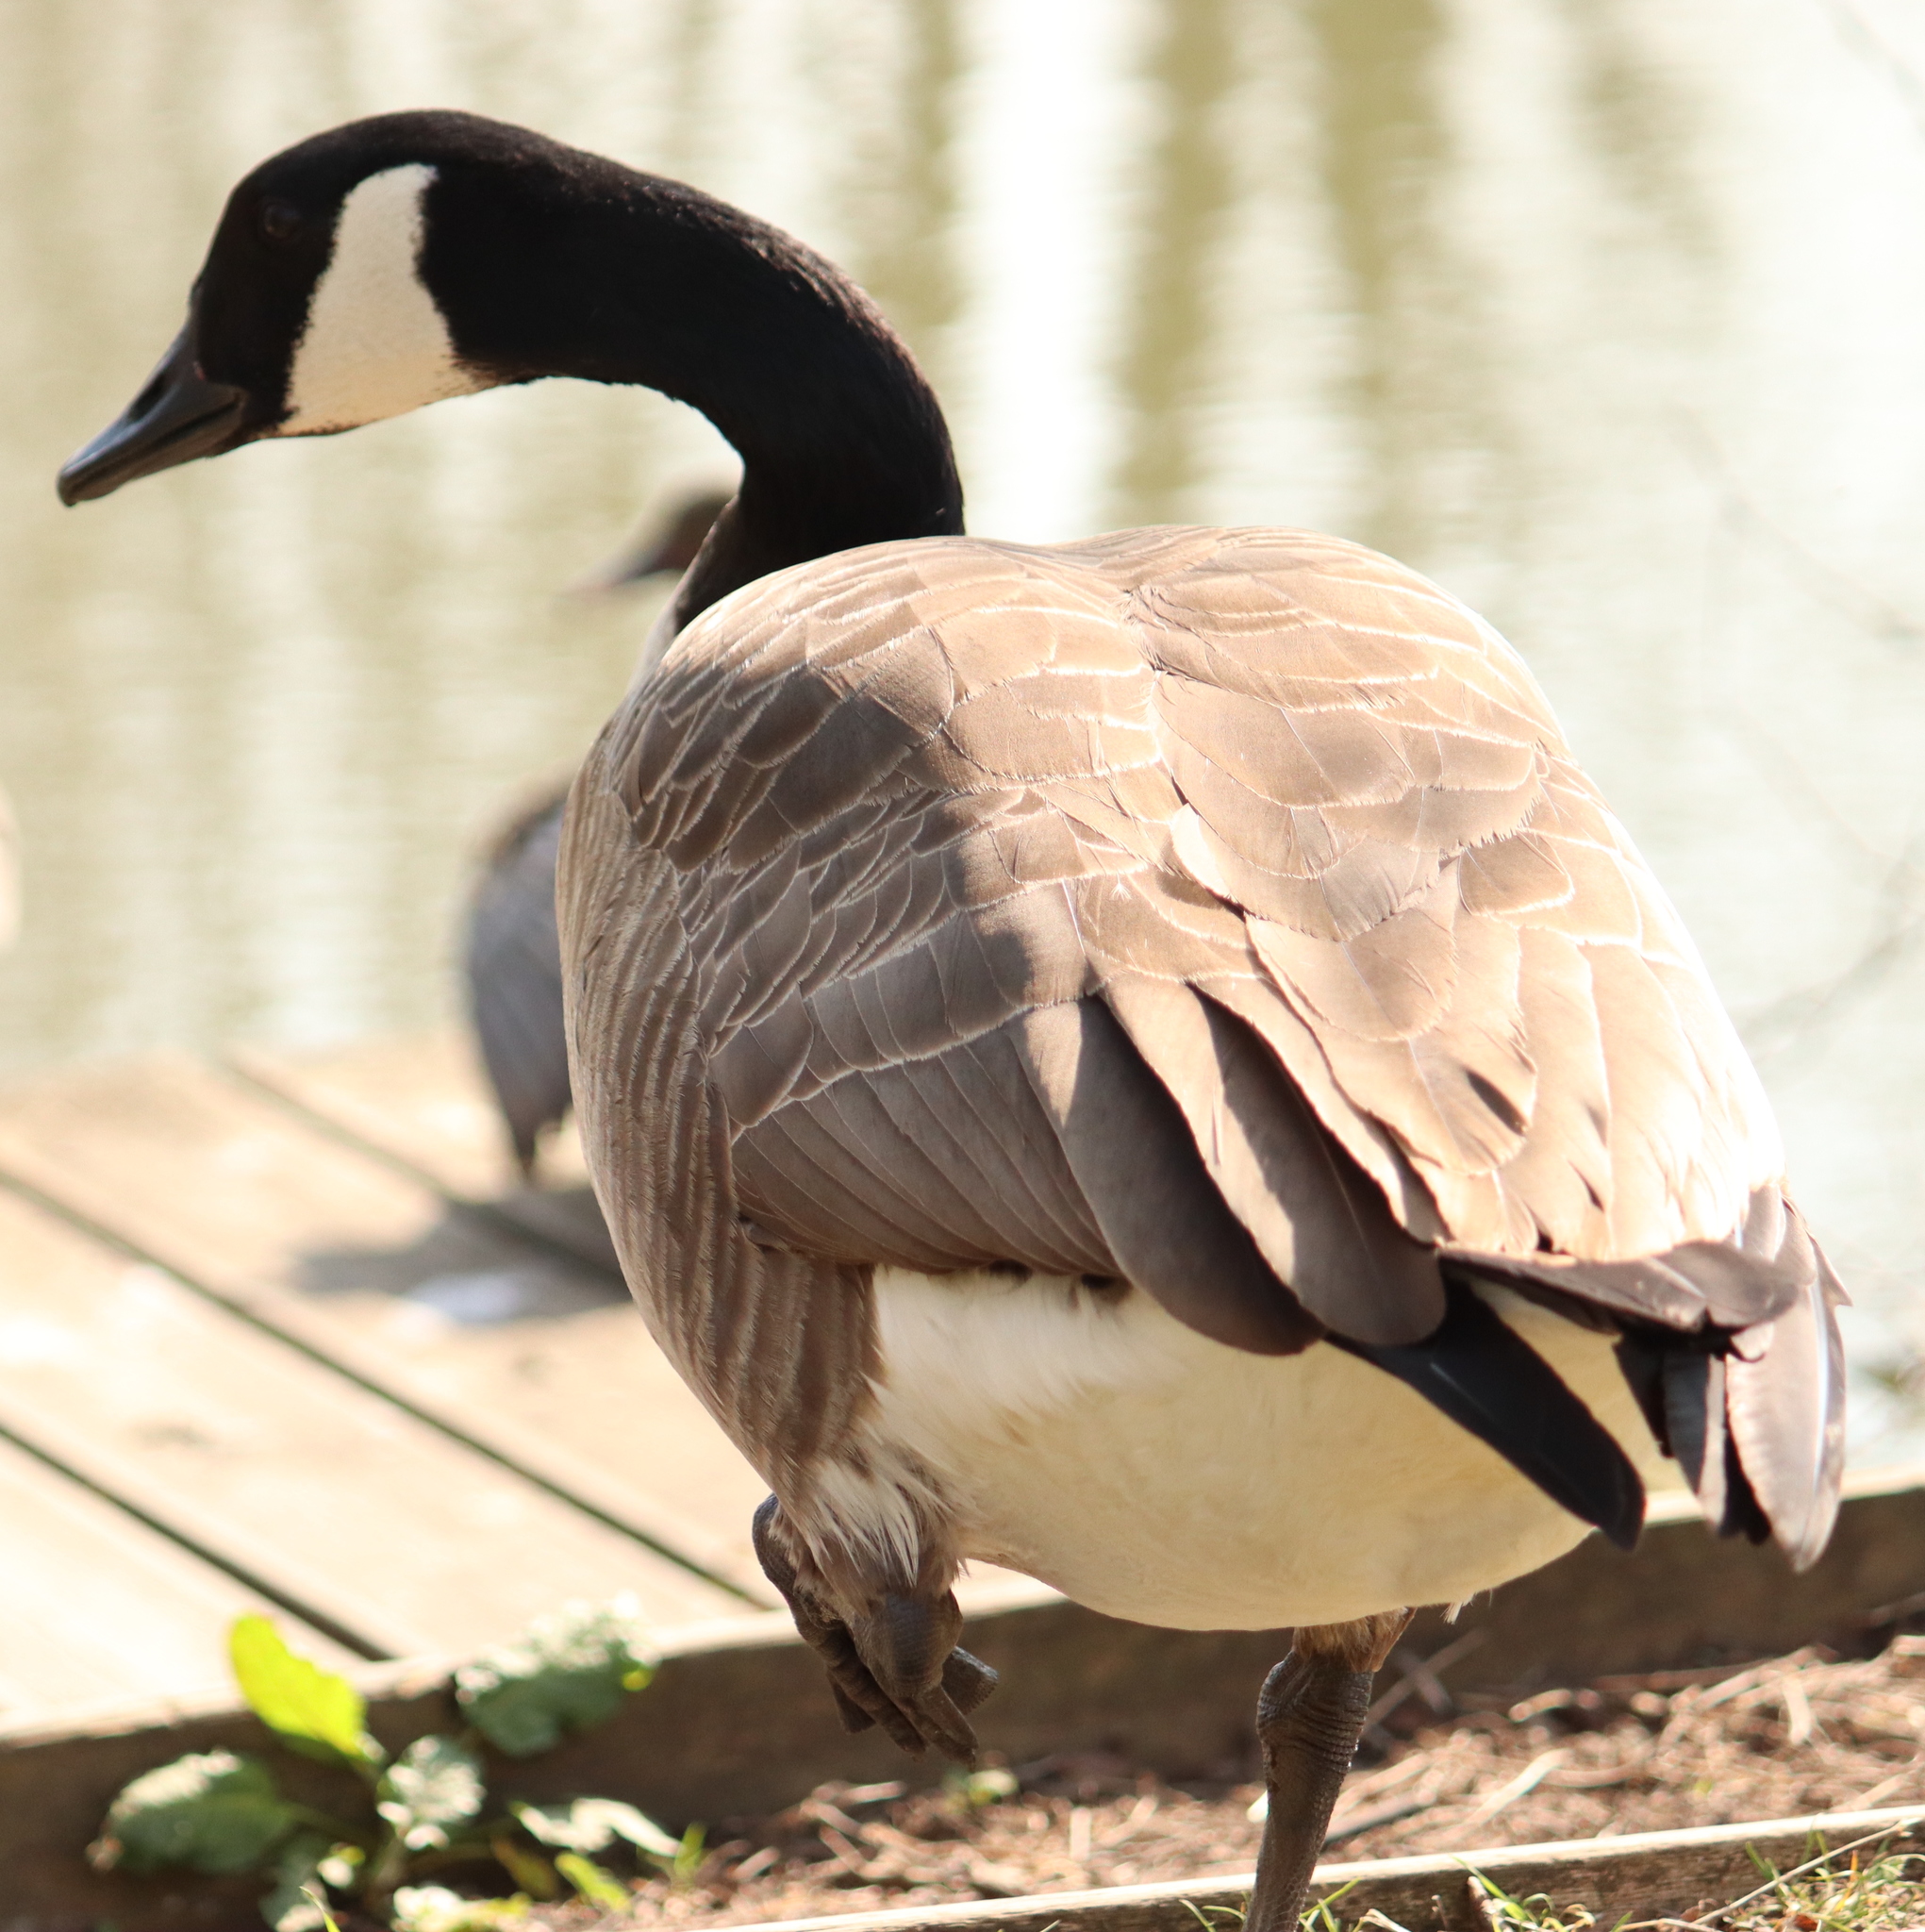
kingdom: Animalia
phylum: Chordata
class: Aves
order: Anseriformes
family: Anatidae
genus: Branta
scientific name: Branta canadensis
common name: Canada goose
